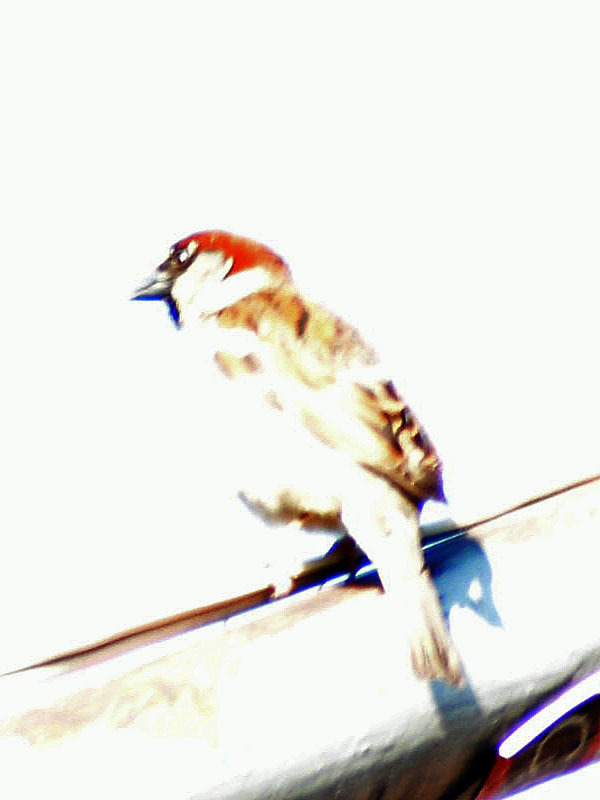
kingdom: Animalia
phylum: Chordata
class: Aves
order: Passeriformes
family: Passeridae
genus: Passer
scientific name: Passer domesticus
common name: House sparrow
